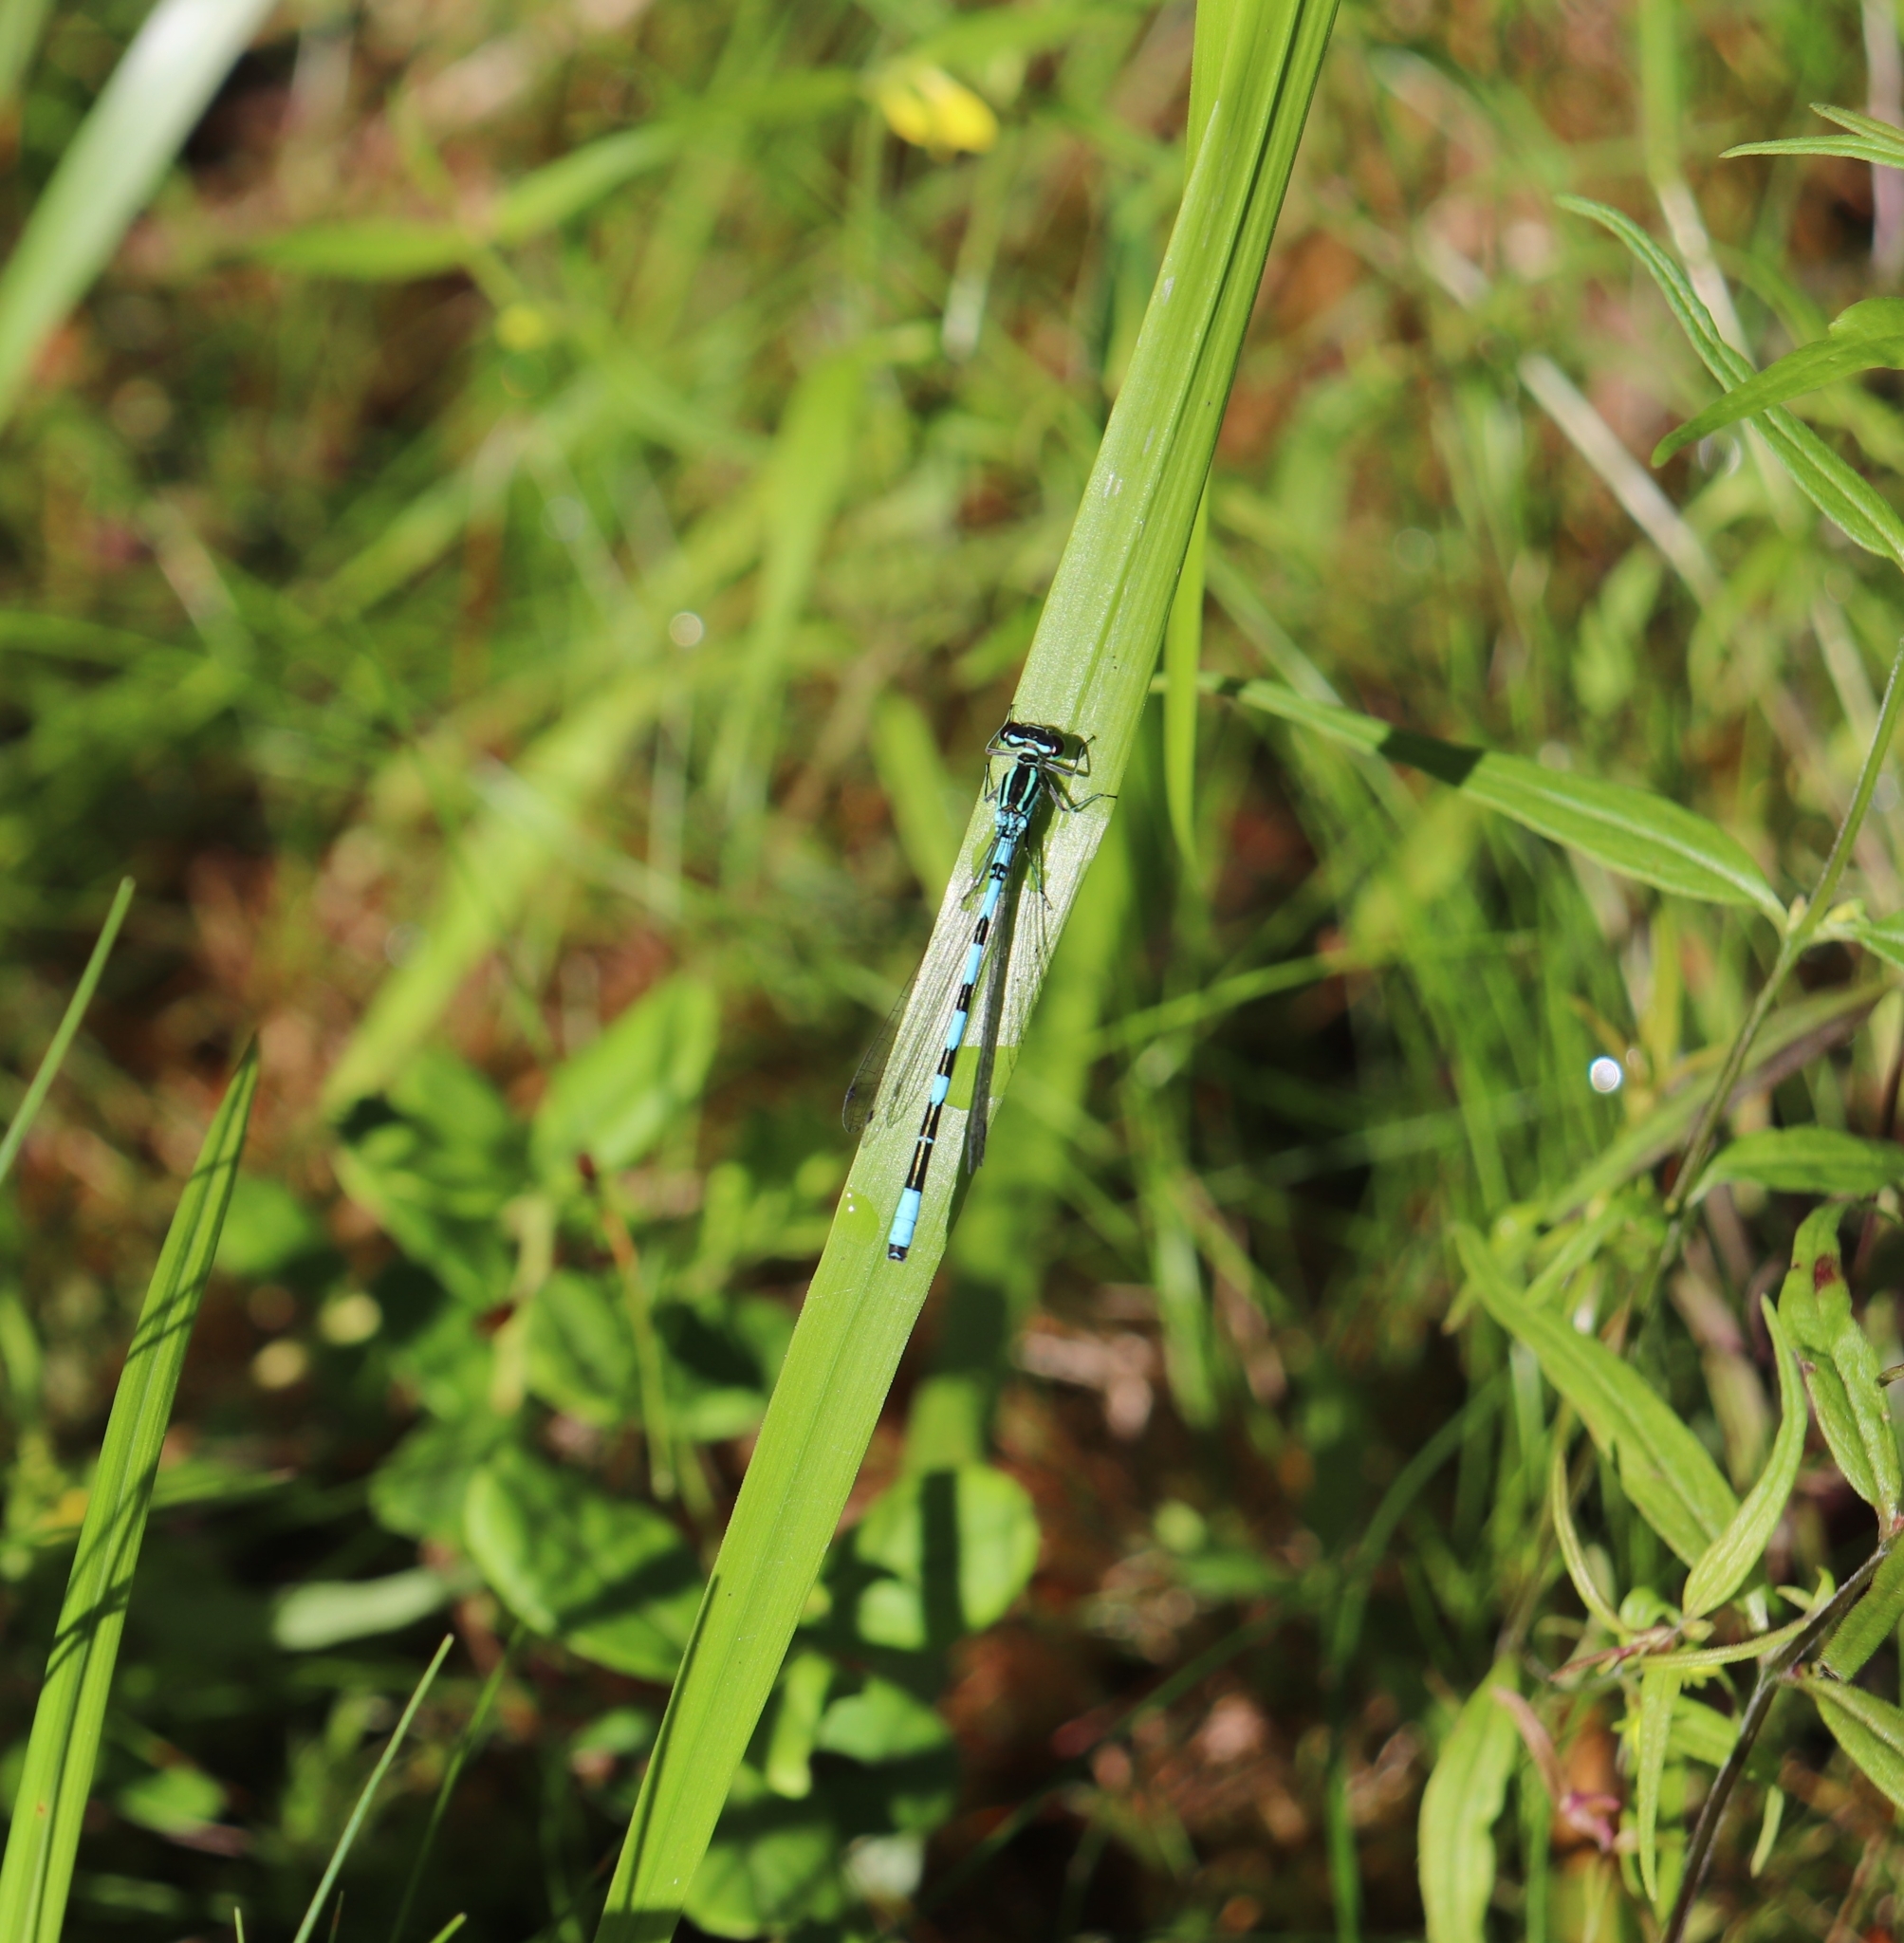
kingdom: Animalia
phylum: Arthropoda
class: Insecta
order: Odonata
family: Coenagrionidae
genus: Coenagrion
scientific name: Coenagrion hastulatum
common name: Spearhead bluet
